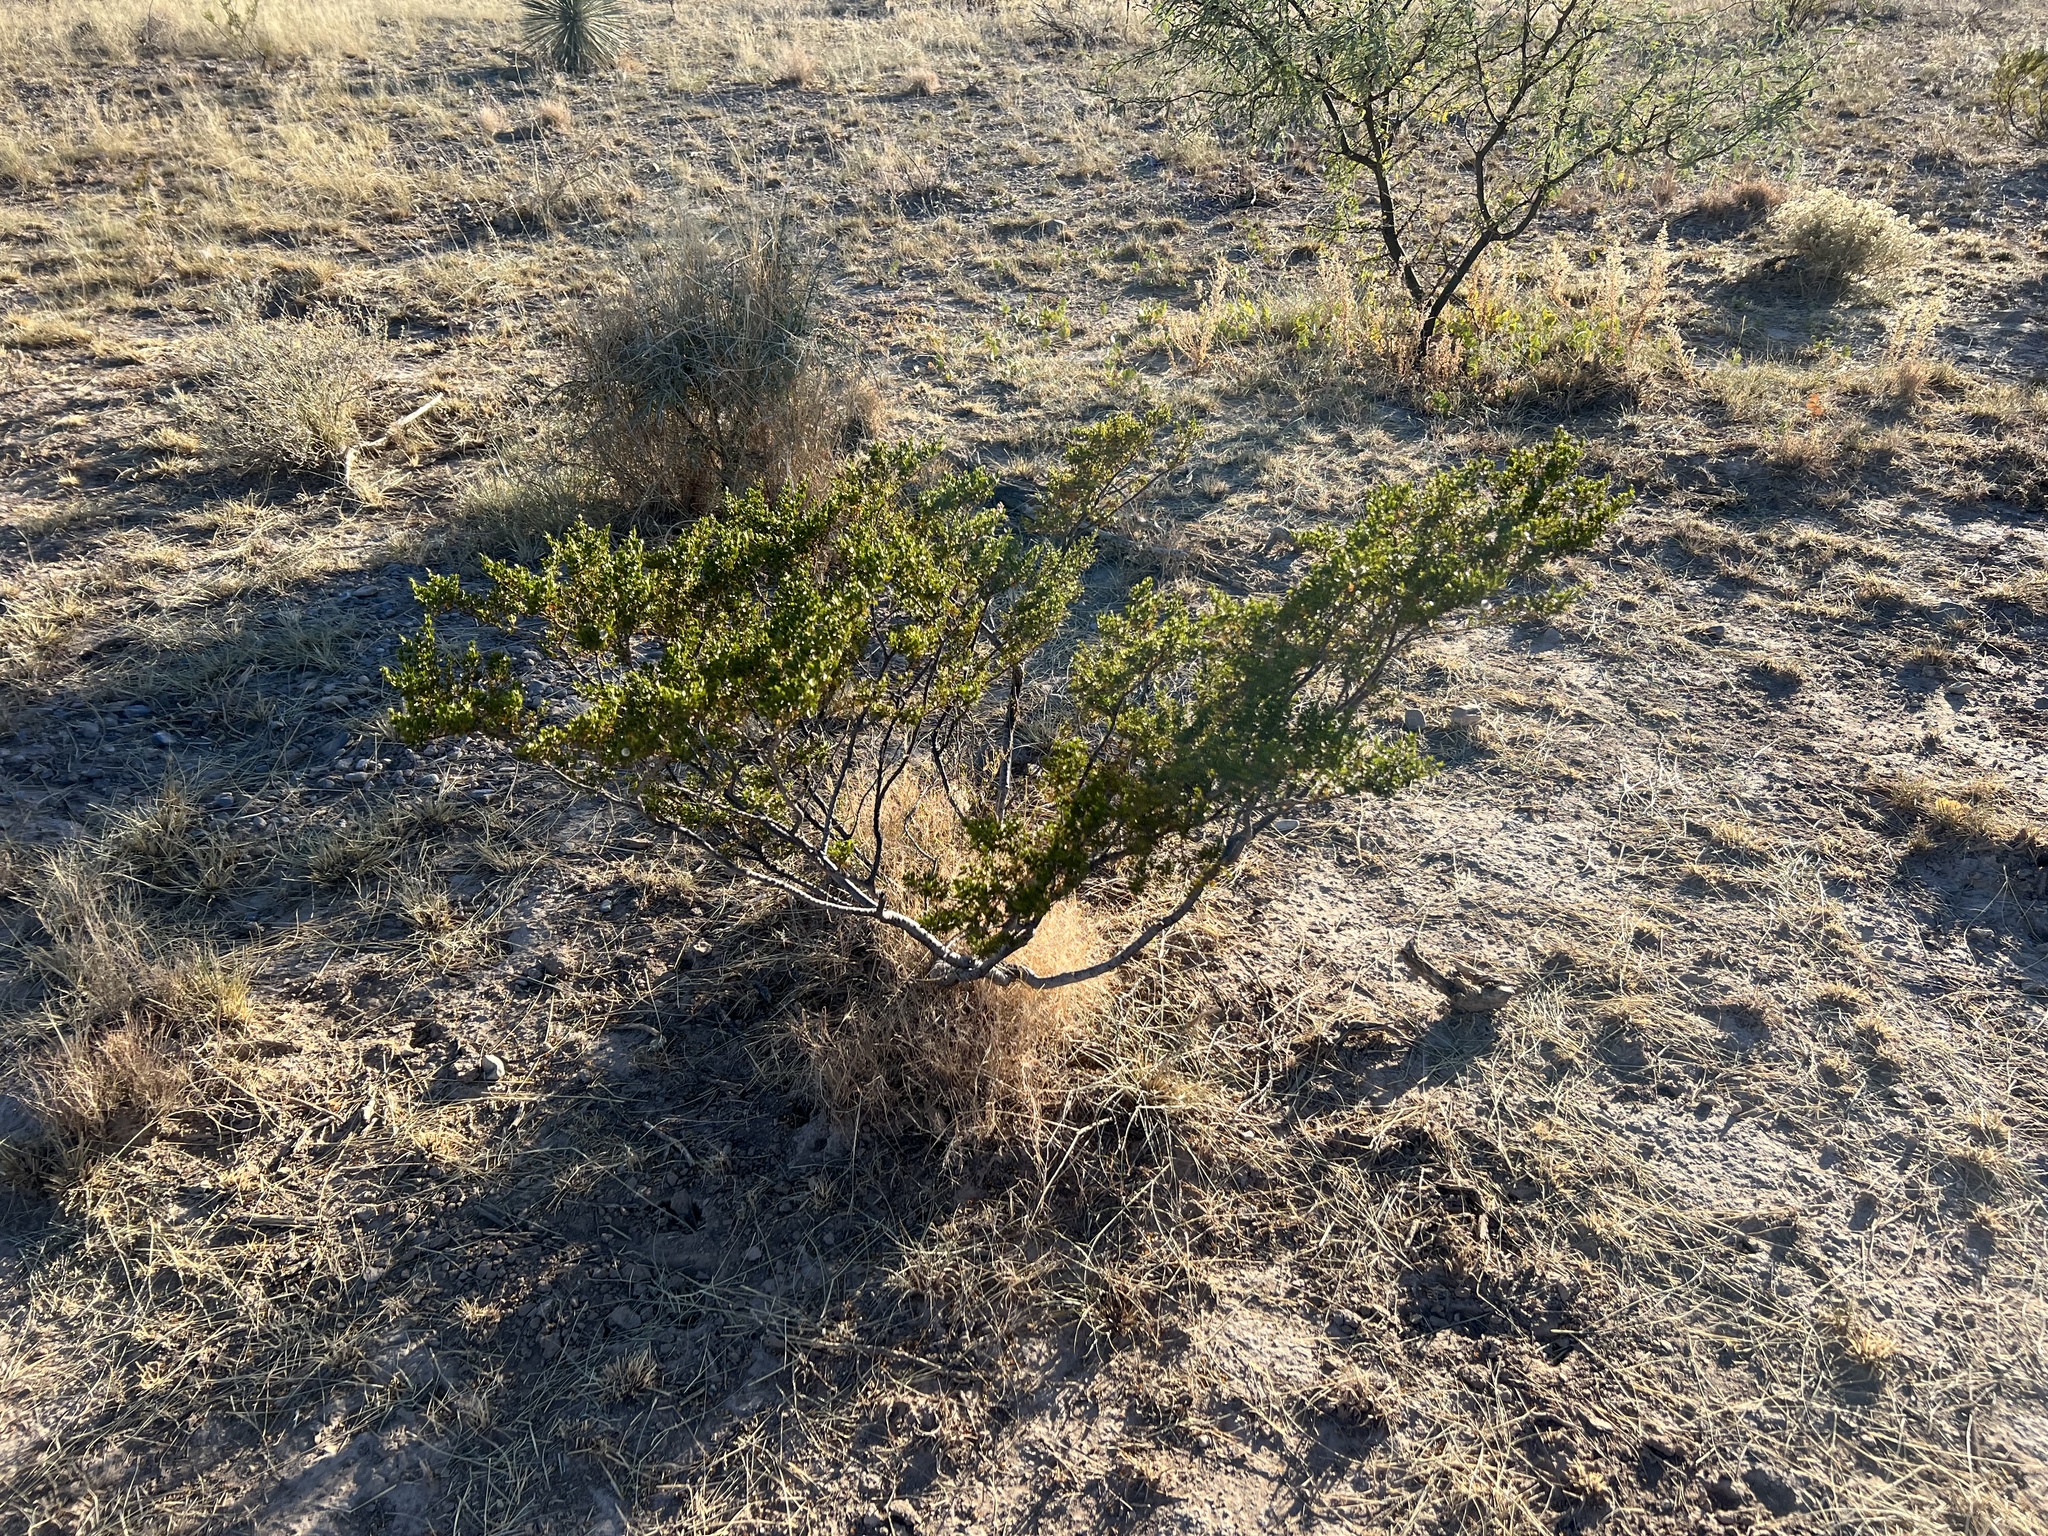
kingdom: Plantae
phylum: Tracheophyta
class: Magnoliopsida
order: Zygophyllales
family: Zygophyllaceae
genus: Larrea
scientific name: Larrea tridentata
